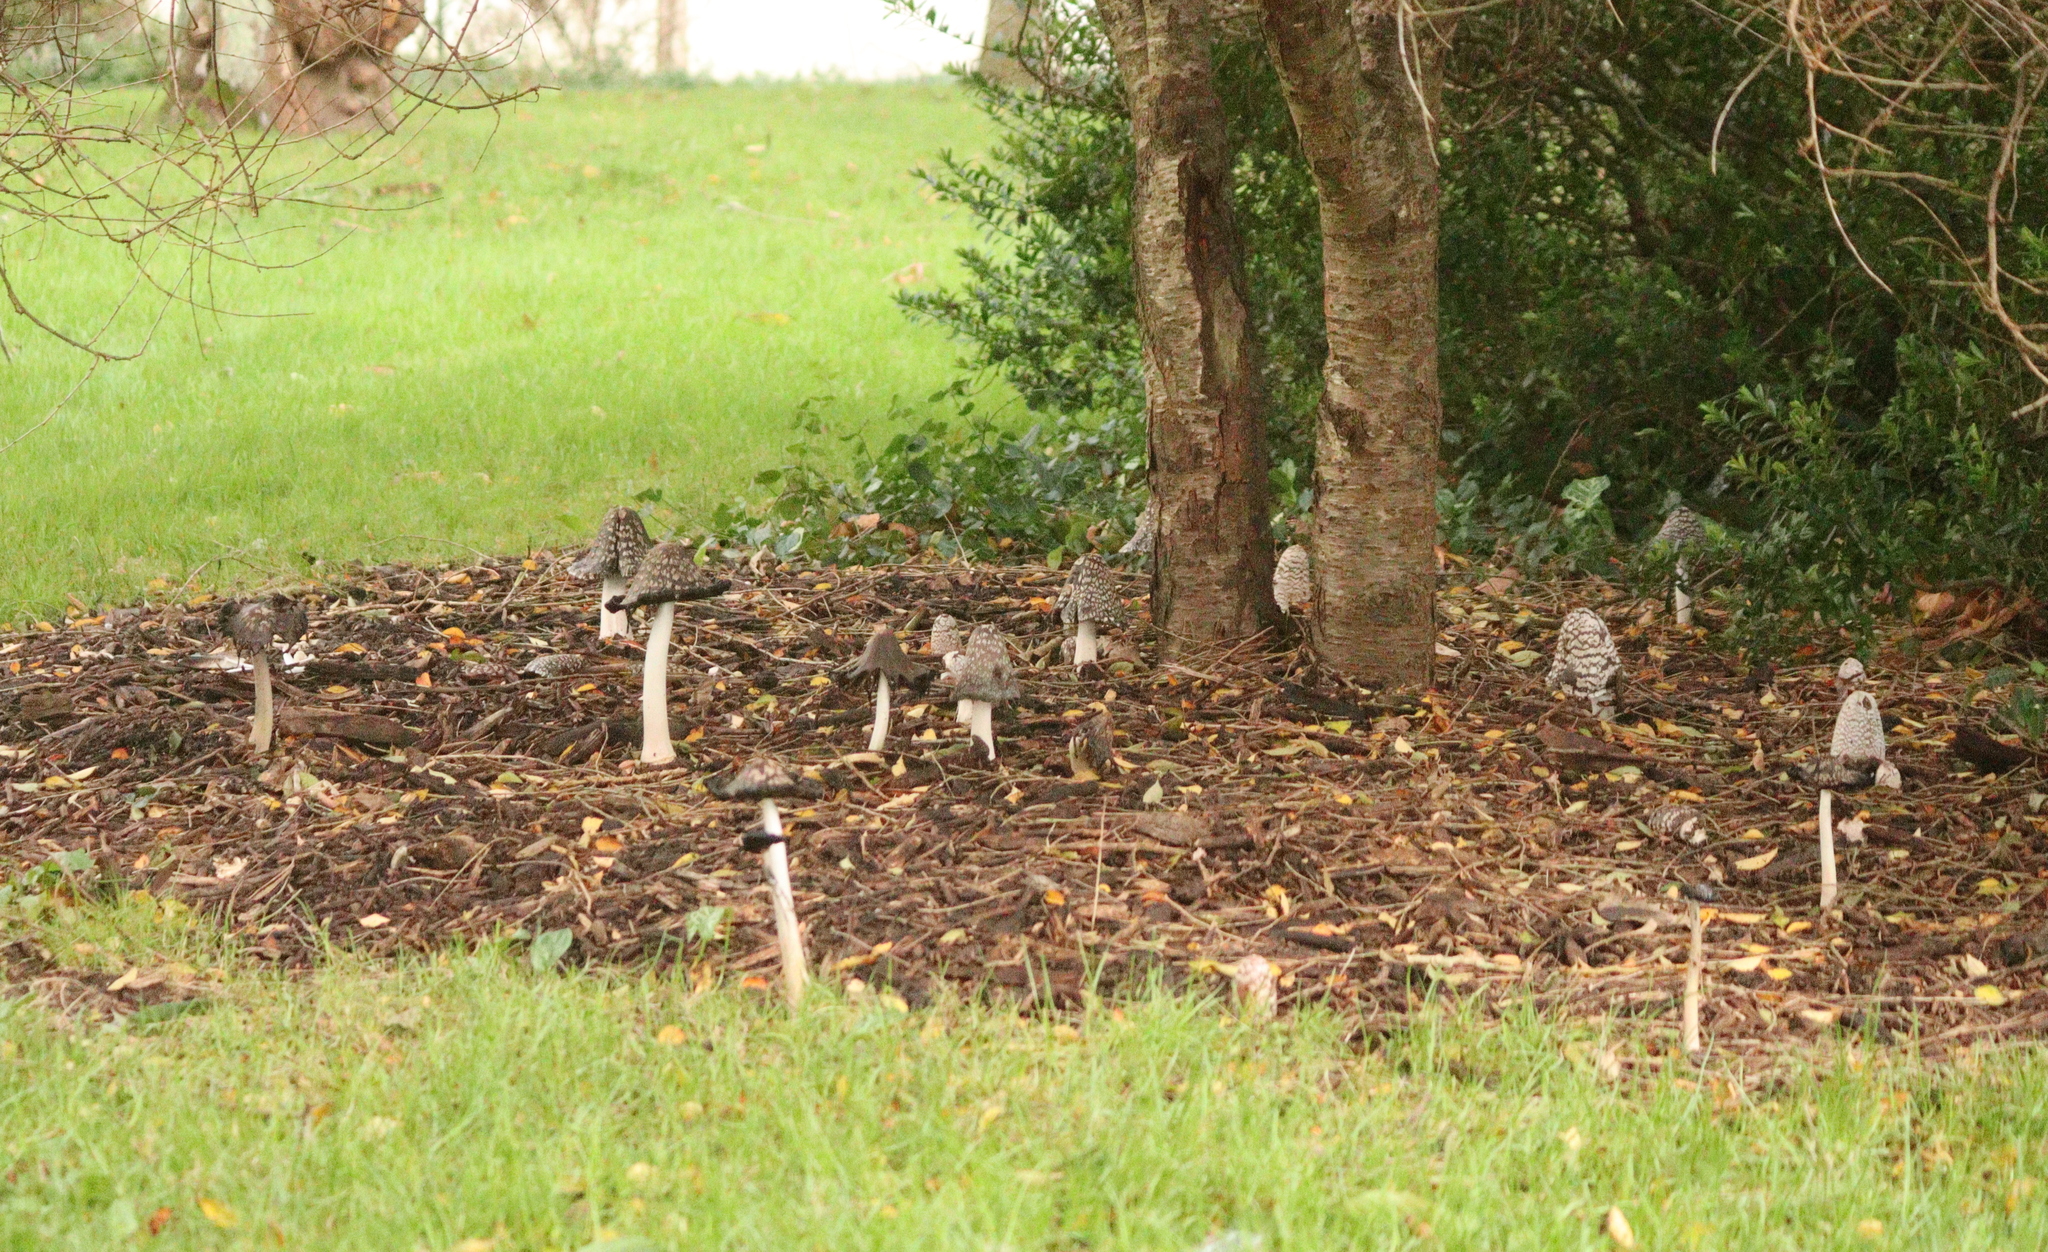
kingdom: Fungi
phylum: Basidiomycota
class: Agaricomycetes
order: Agaricales
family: Psathyrellaceae
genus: Coprinopsis
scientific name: Coprinopsis picacea
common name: Magpie inkcap
